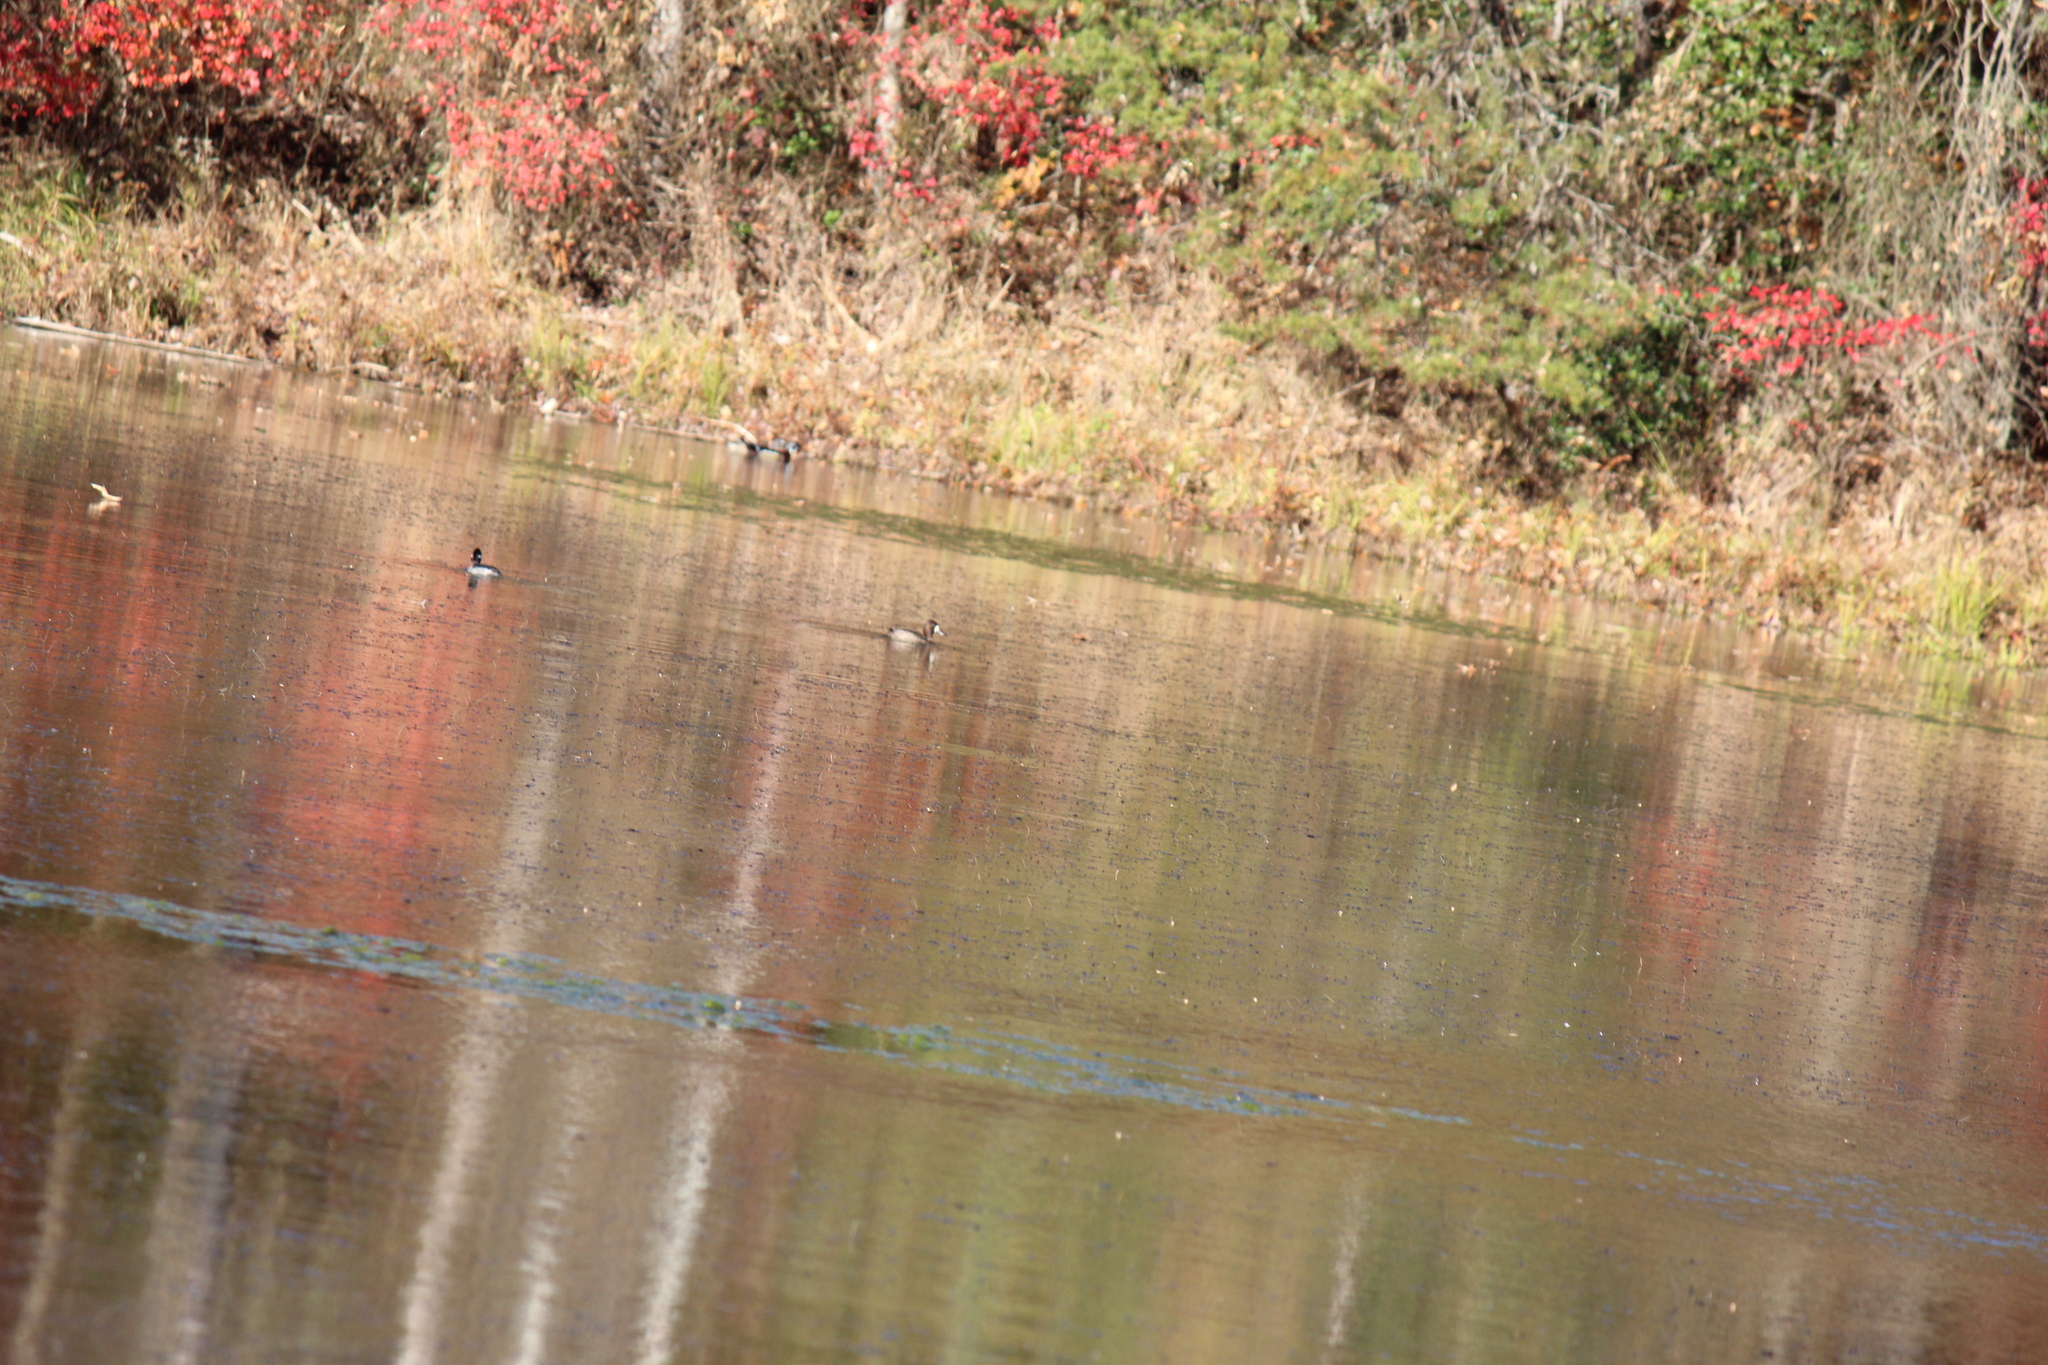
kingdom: Animalia
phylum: Chordata
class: Aves
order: Anseriformes
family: Anatidae
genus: Aythya
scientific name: Aythya affinis
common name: Lesser scaup
